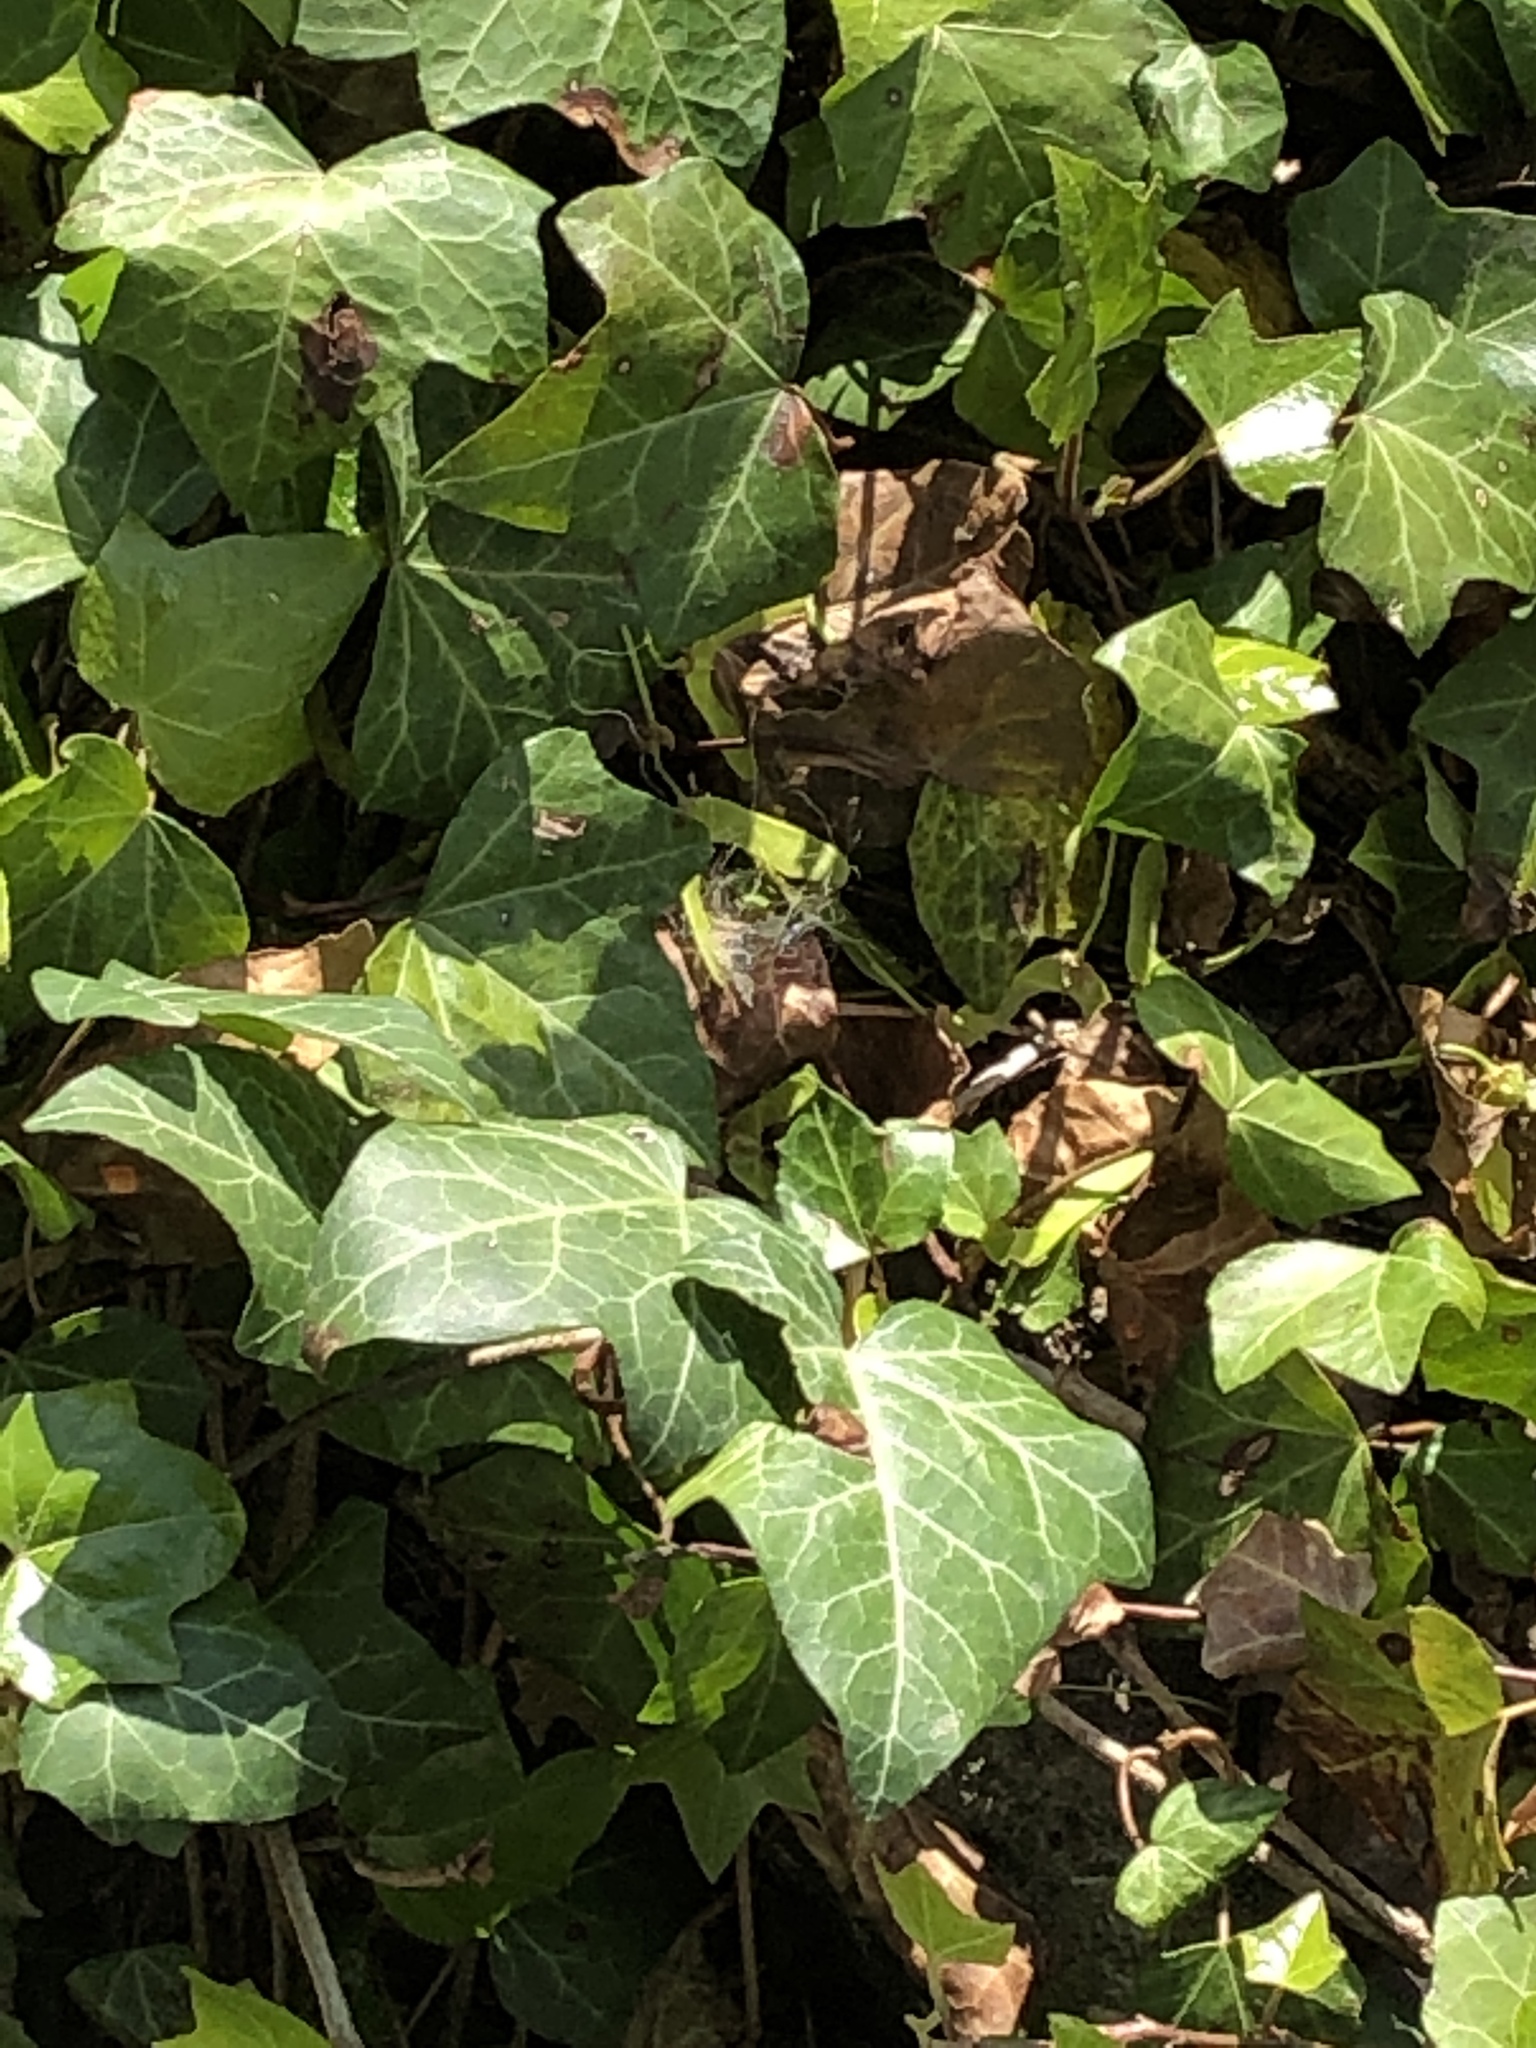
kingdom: Plantae
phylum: Tracheophyta
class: Magnoliopsida
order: Apiales
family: Araliaceae
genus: Hedera
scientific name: Hedera helix
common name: Ivy
